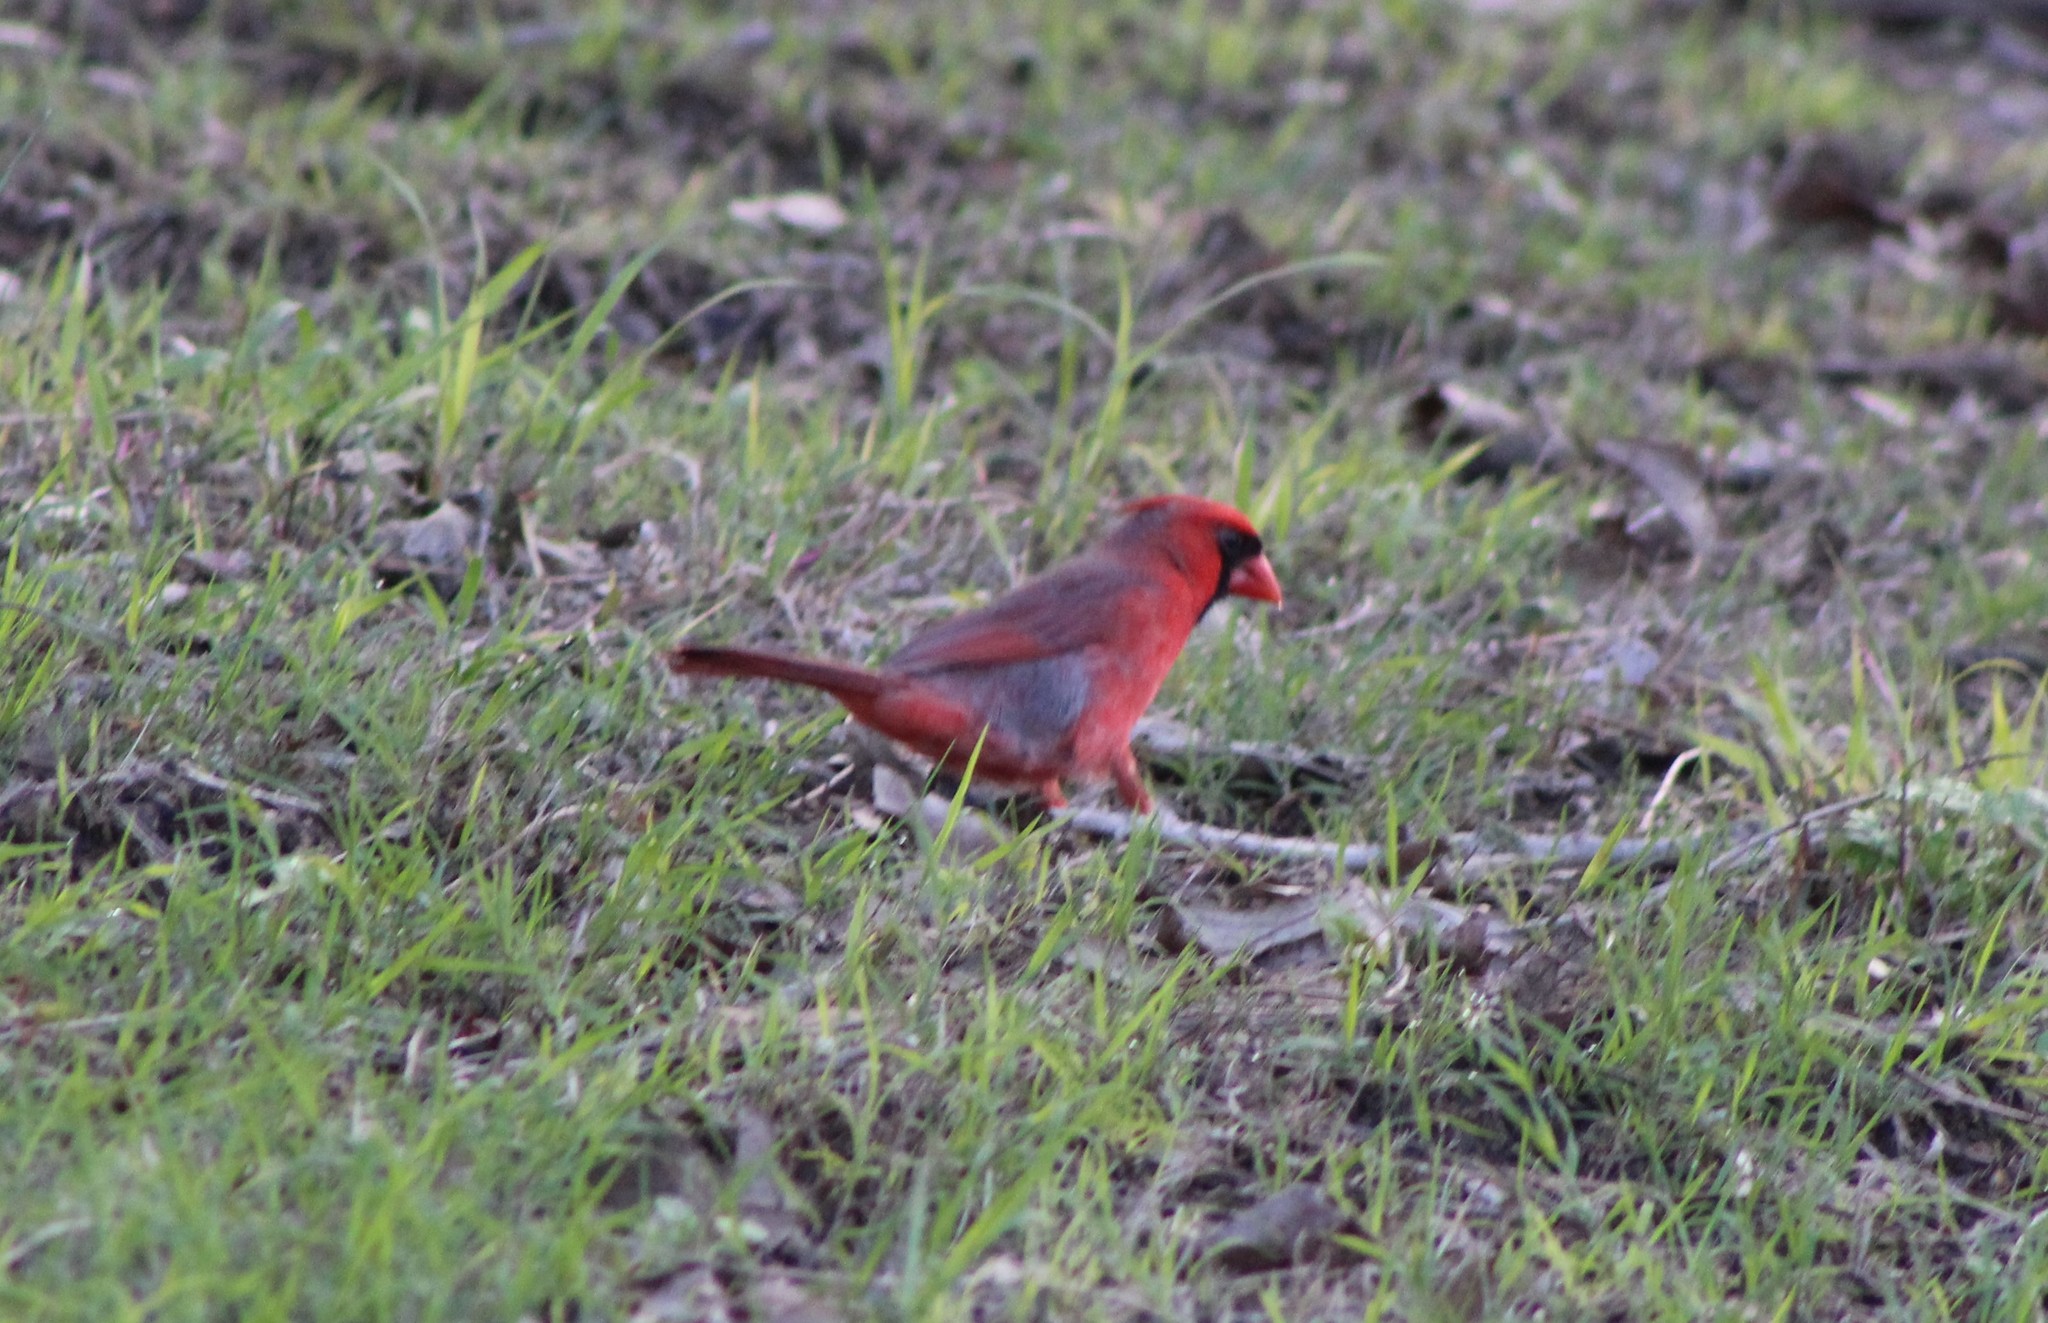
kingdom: Animalia
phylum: Chordata
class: Aves
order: Passeriformes
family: Cardinalidae
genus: Cardinalis
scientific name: Cardinalis cardinalis
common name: Northern cardinal
